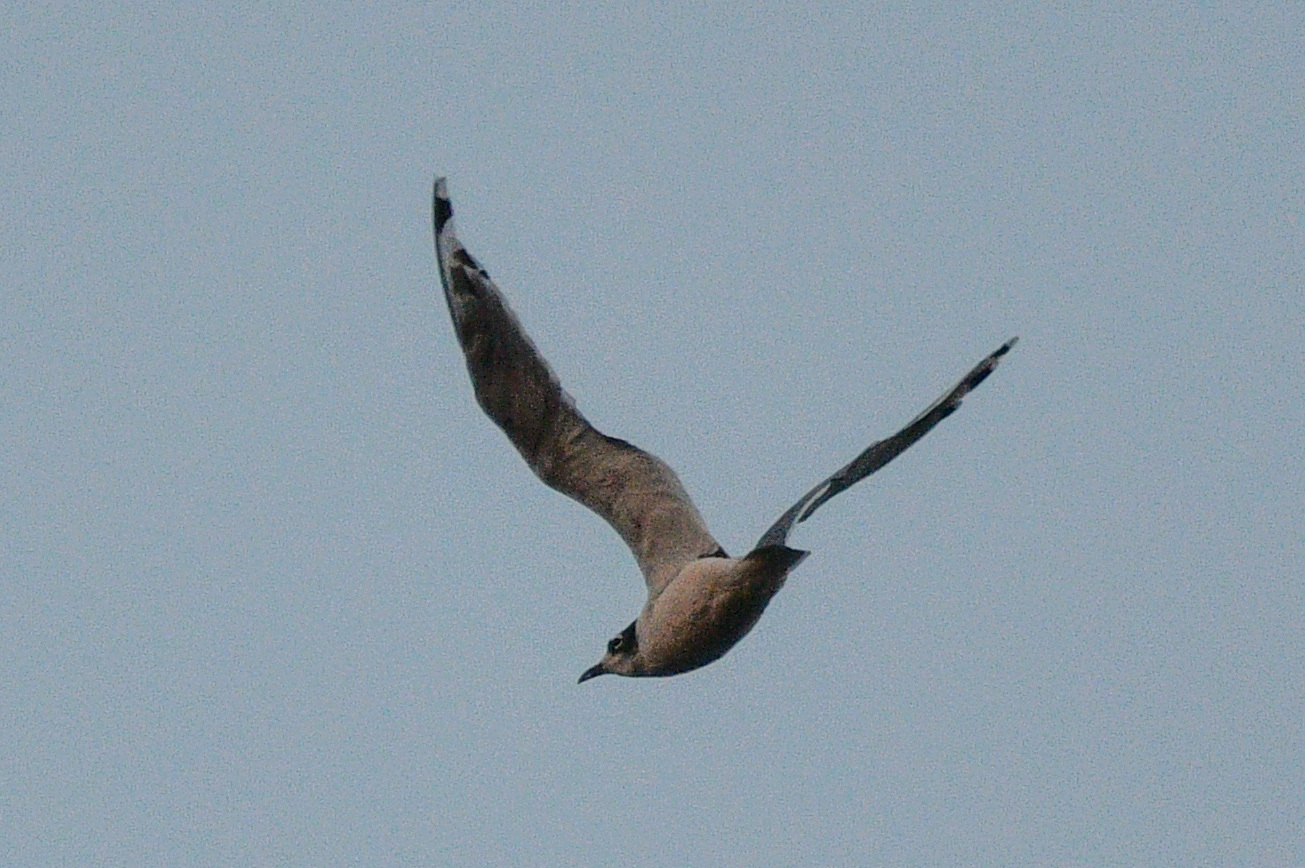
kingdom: Animalia
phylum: Chordata
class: Aves
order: Charadriiformes
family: Laridae
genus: Leucophaeus
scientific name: Leucophaeus
